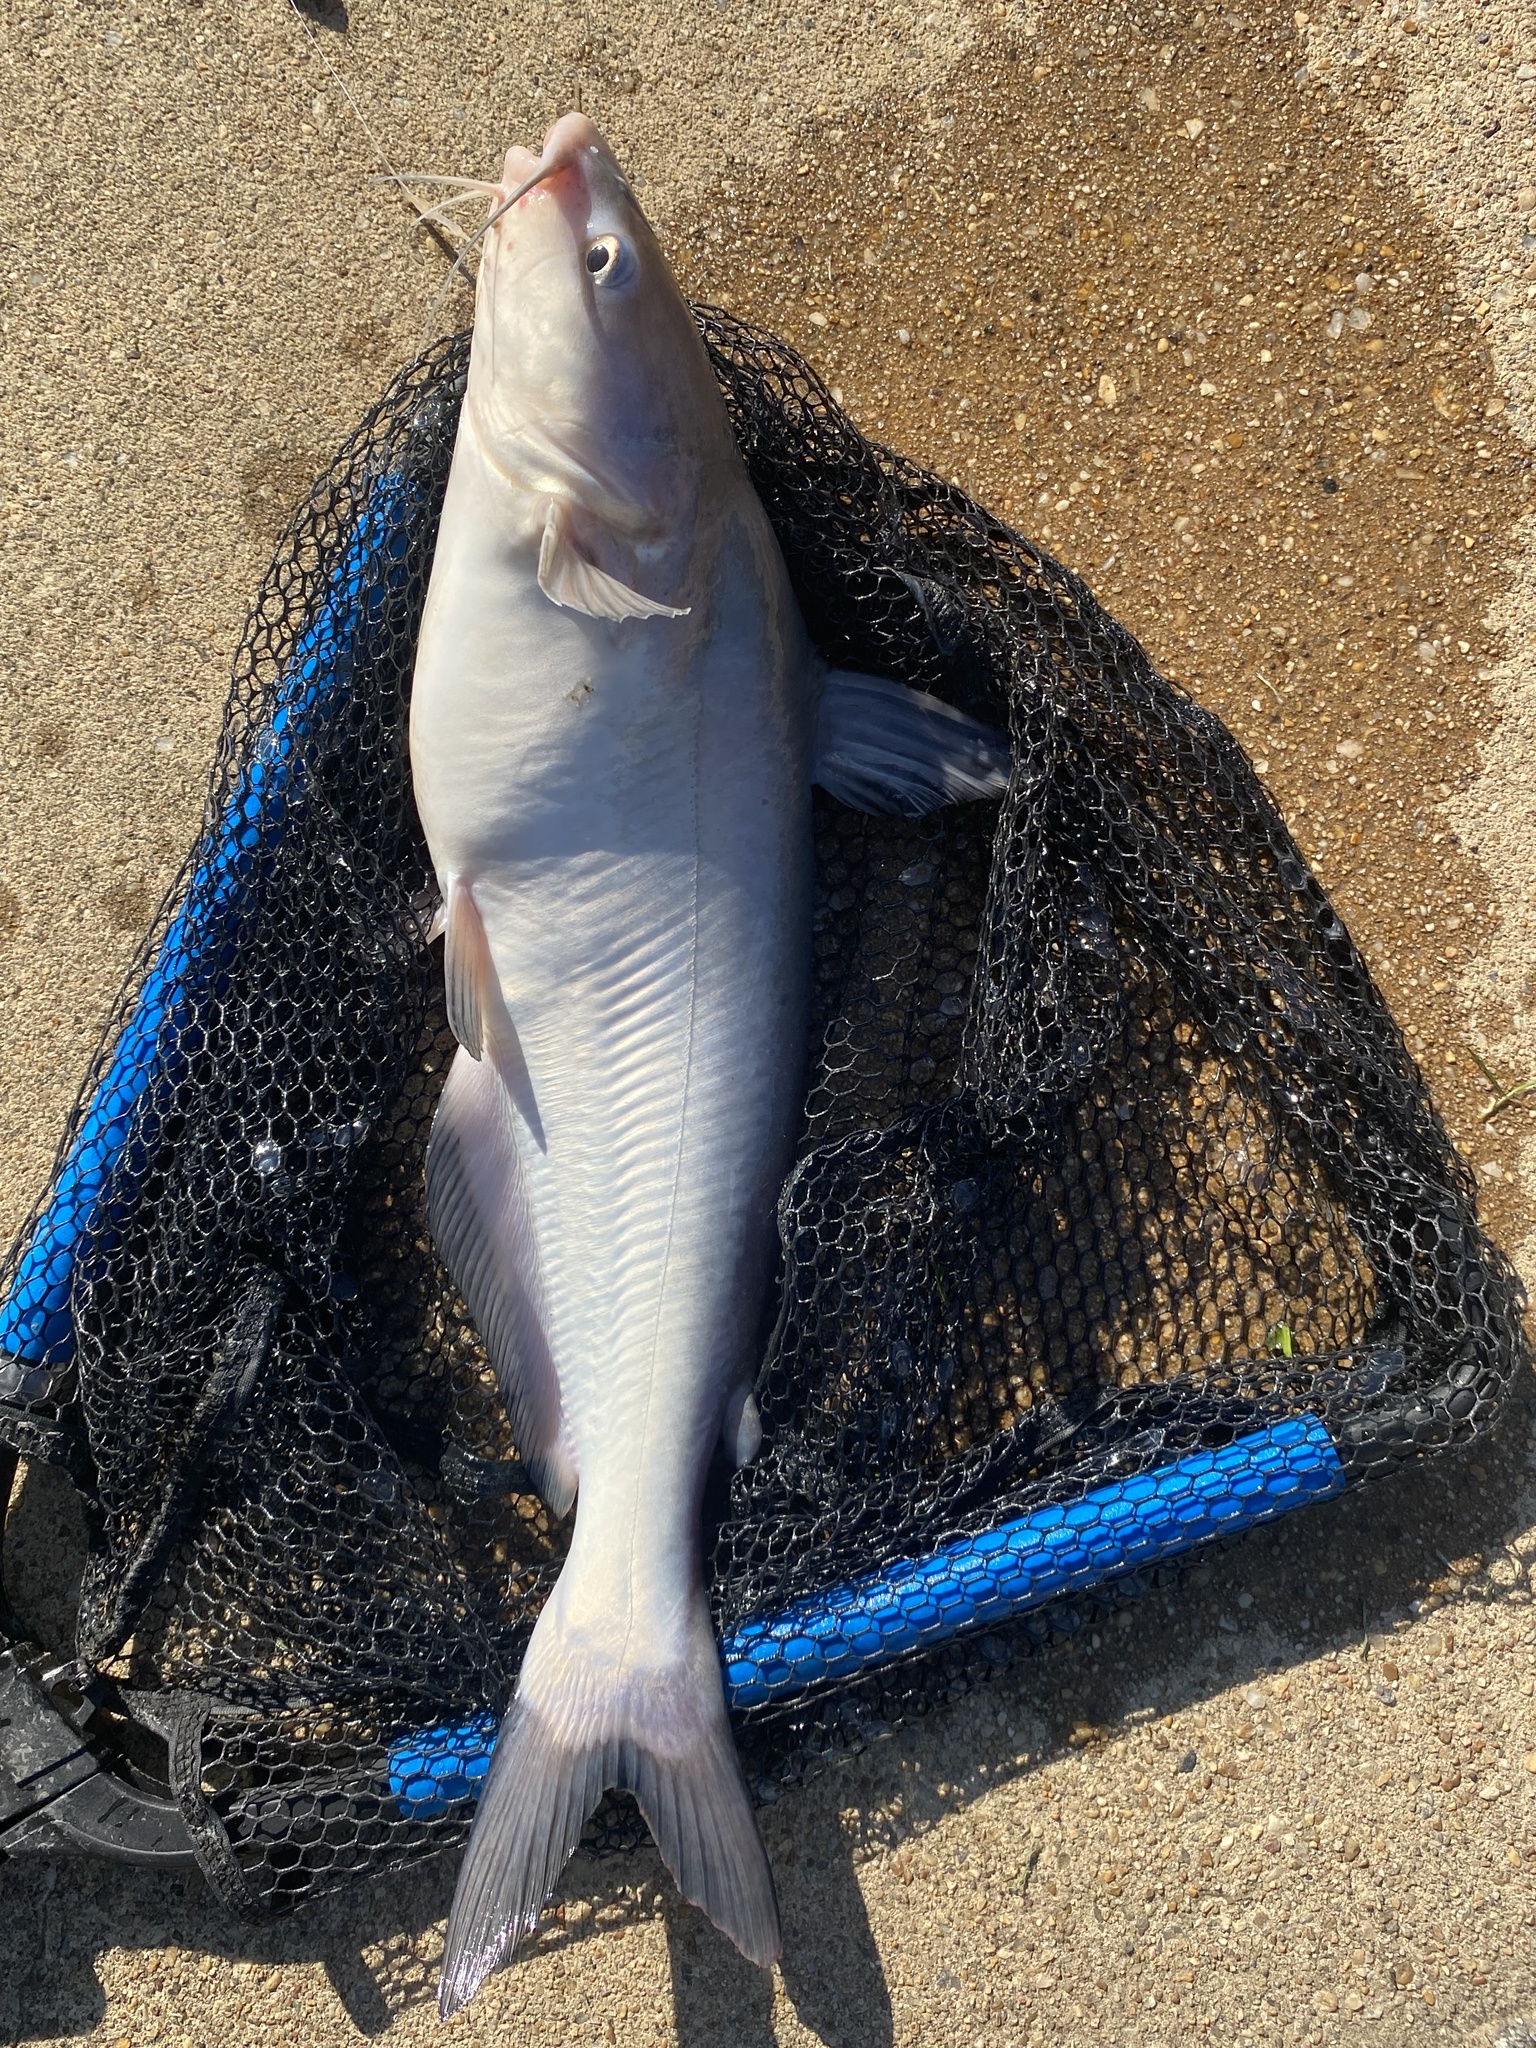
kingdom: Animalia
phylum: Chordata
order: Siluriformes
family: Ictaluridae
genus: Ictalurus
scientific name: Ictalurus furcatus
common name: Blue catfish
